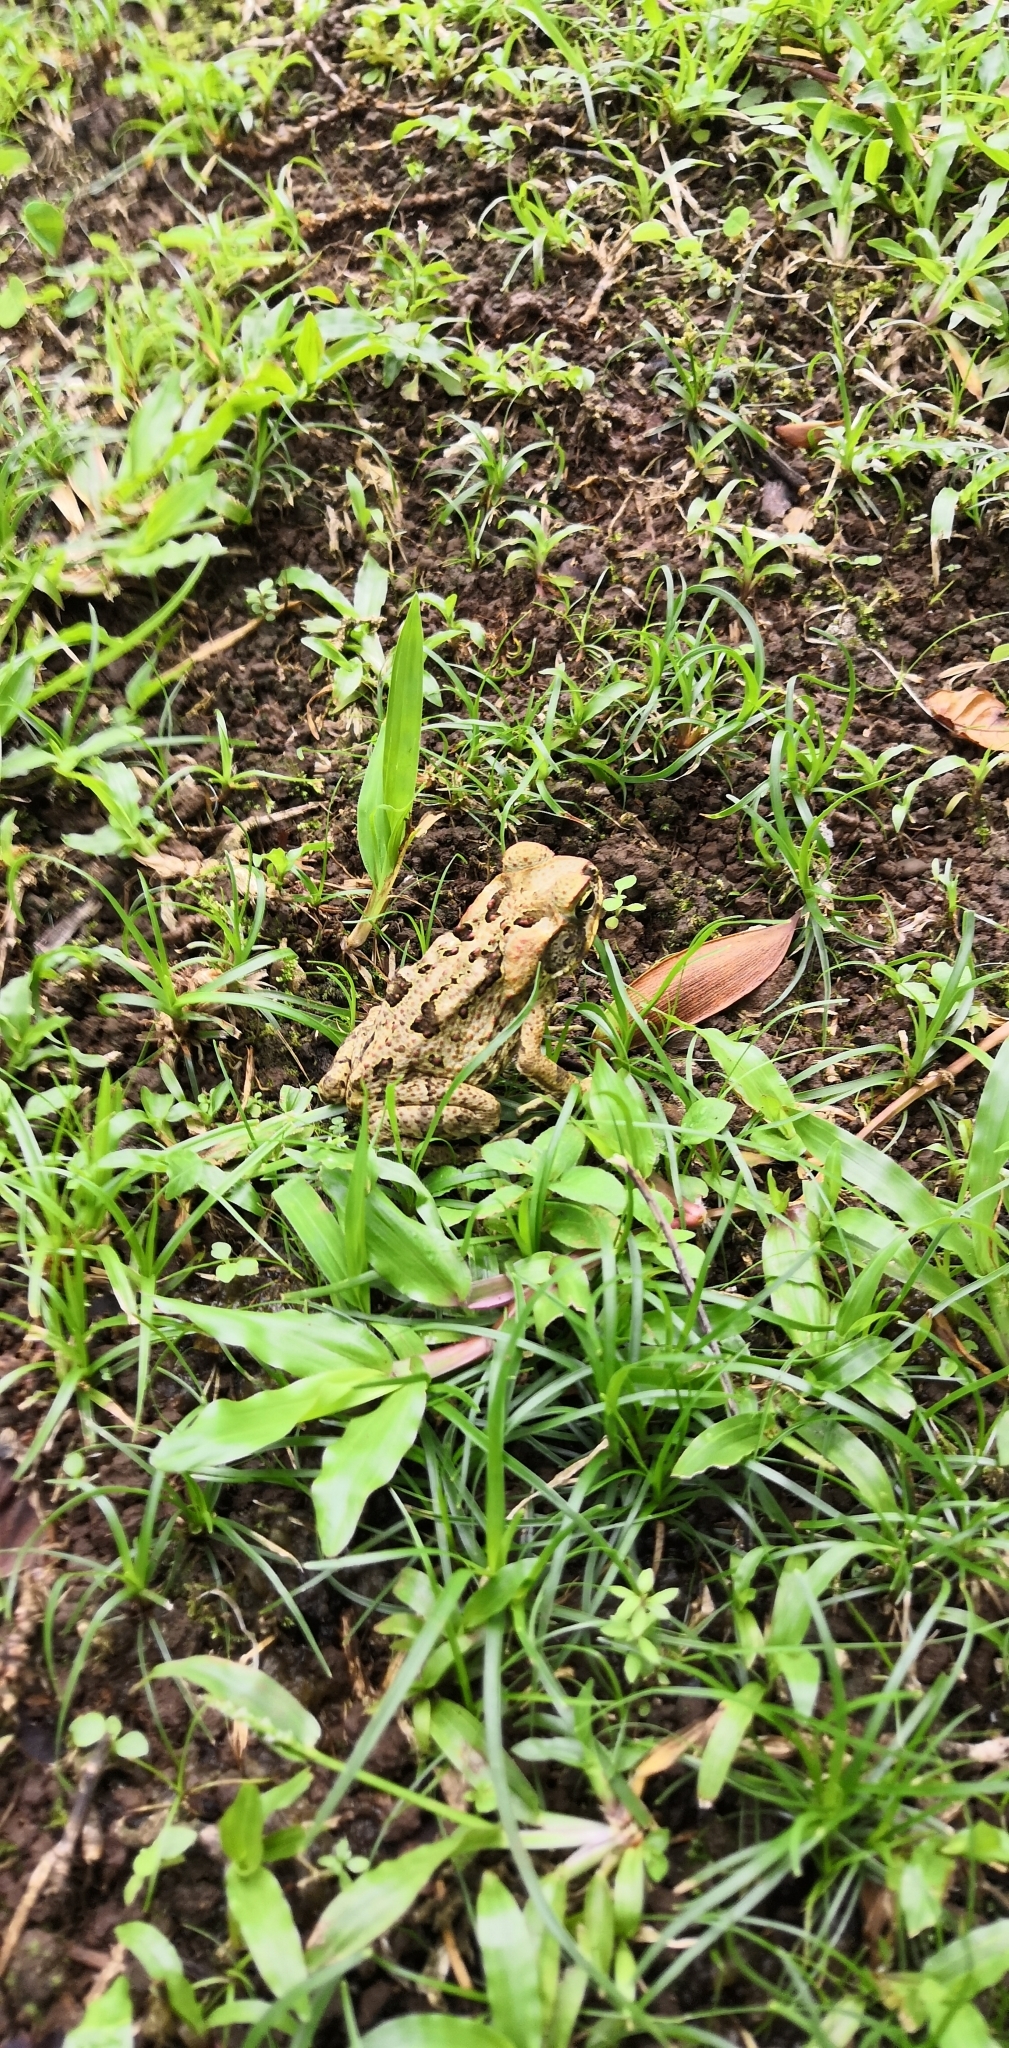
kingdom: Animalia
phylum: Chordata
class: Amphibia
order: Anura
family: Bufonidae
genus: Rhinella
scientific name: Rhinella marina
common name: Cane toad
